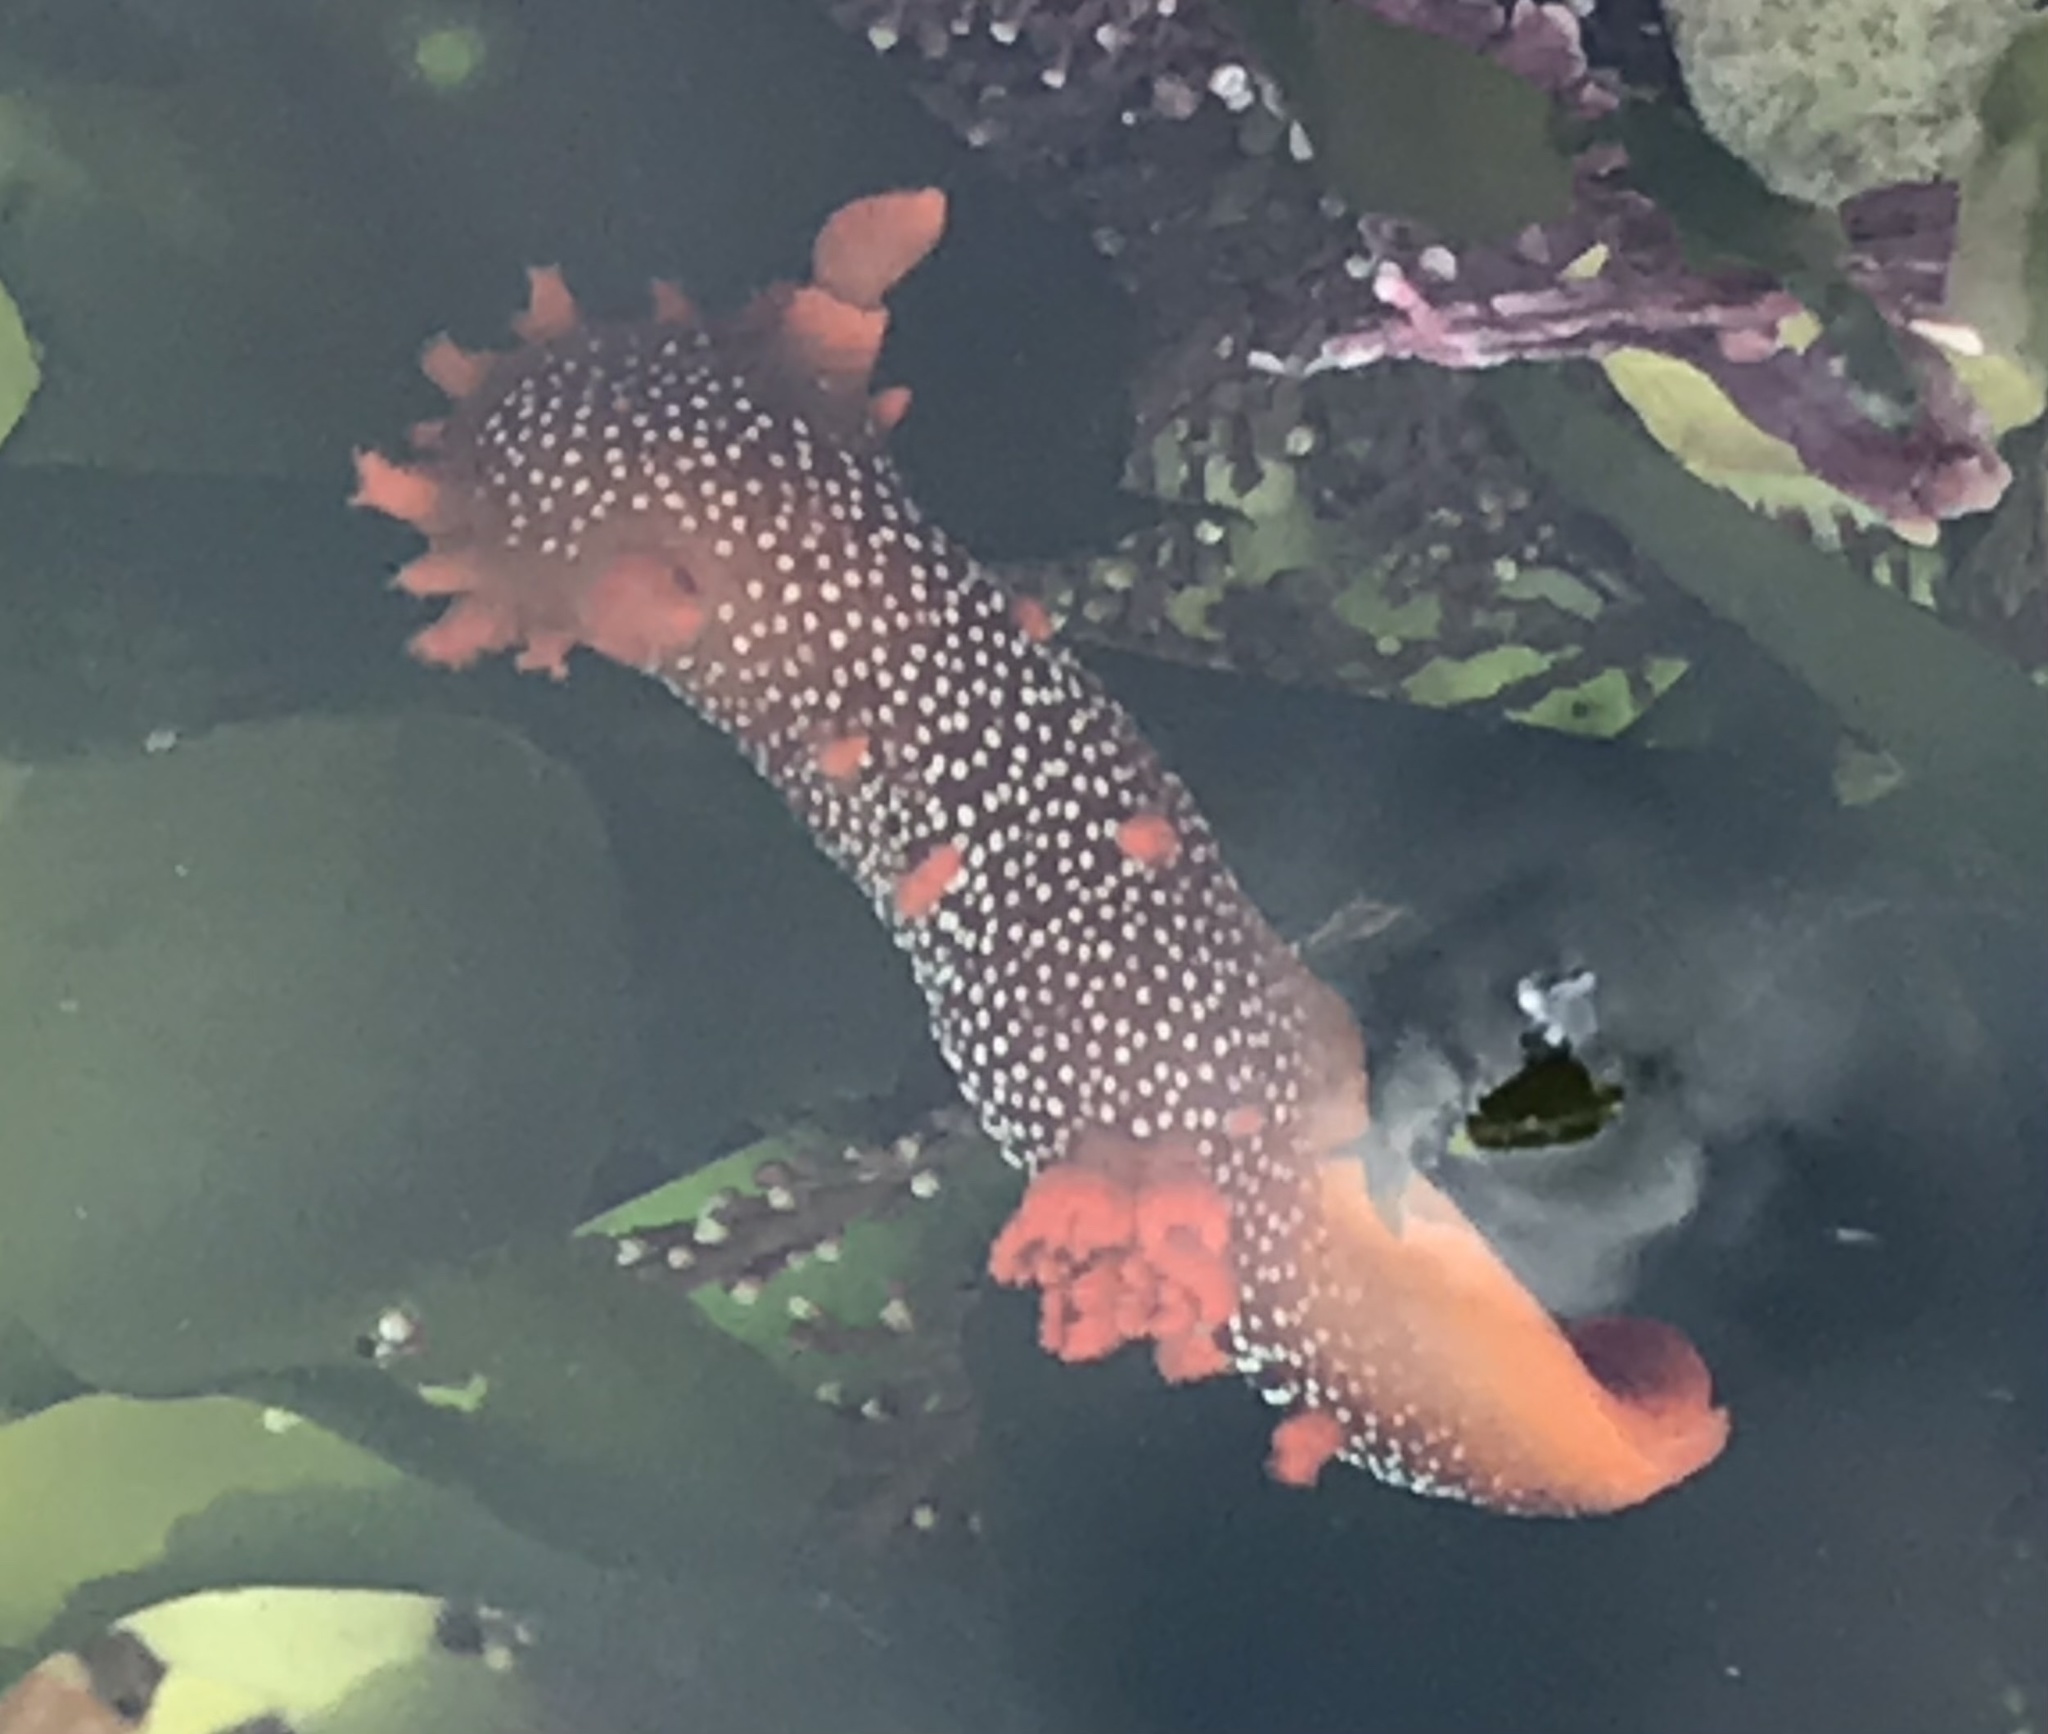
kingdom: Animalia
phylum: Mollusca
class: Gastropoda
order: Nudibranchia
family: Polyceridae
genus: Triopha
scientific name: Triopha maculata
